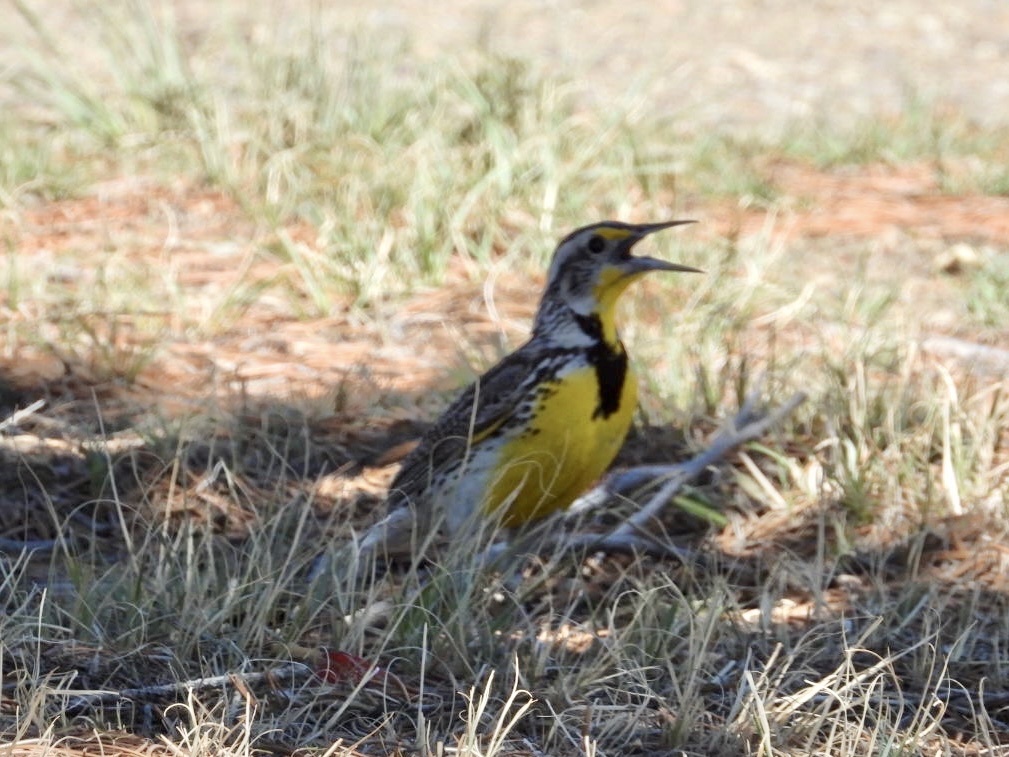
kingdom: Animalia
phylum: Chordata
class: Aves
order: Passeriformes
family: Icteridae
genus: Sturnella
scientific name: Sturnella neglecta
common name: Western meadowlark
